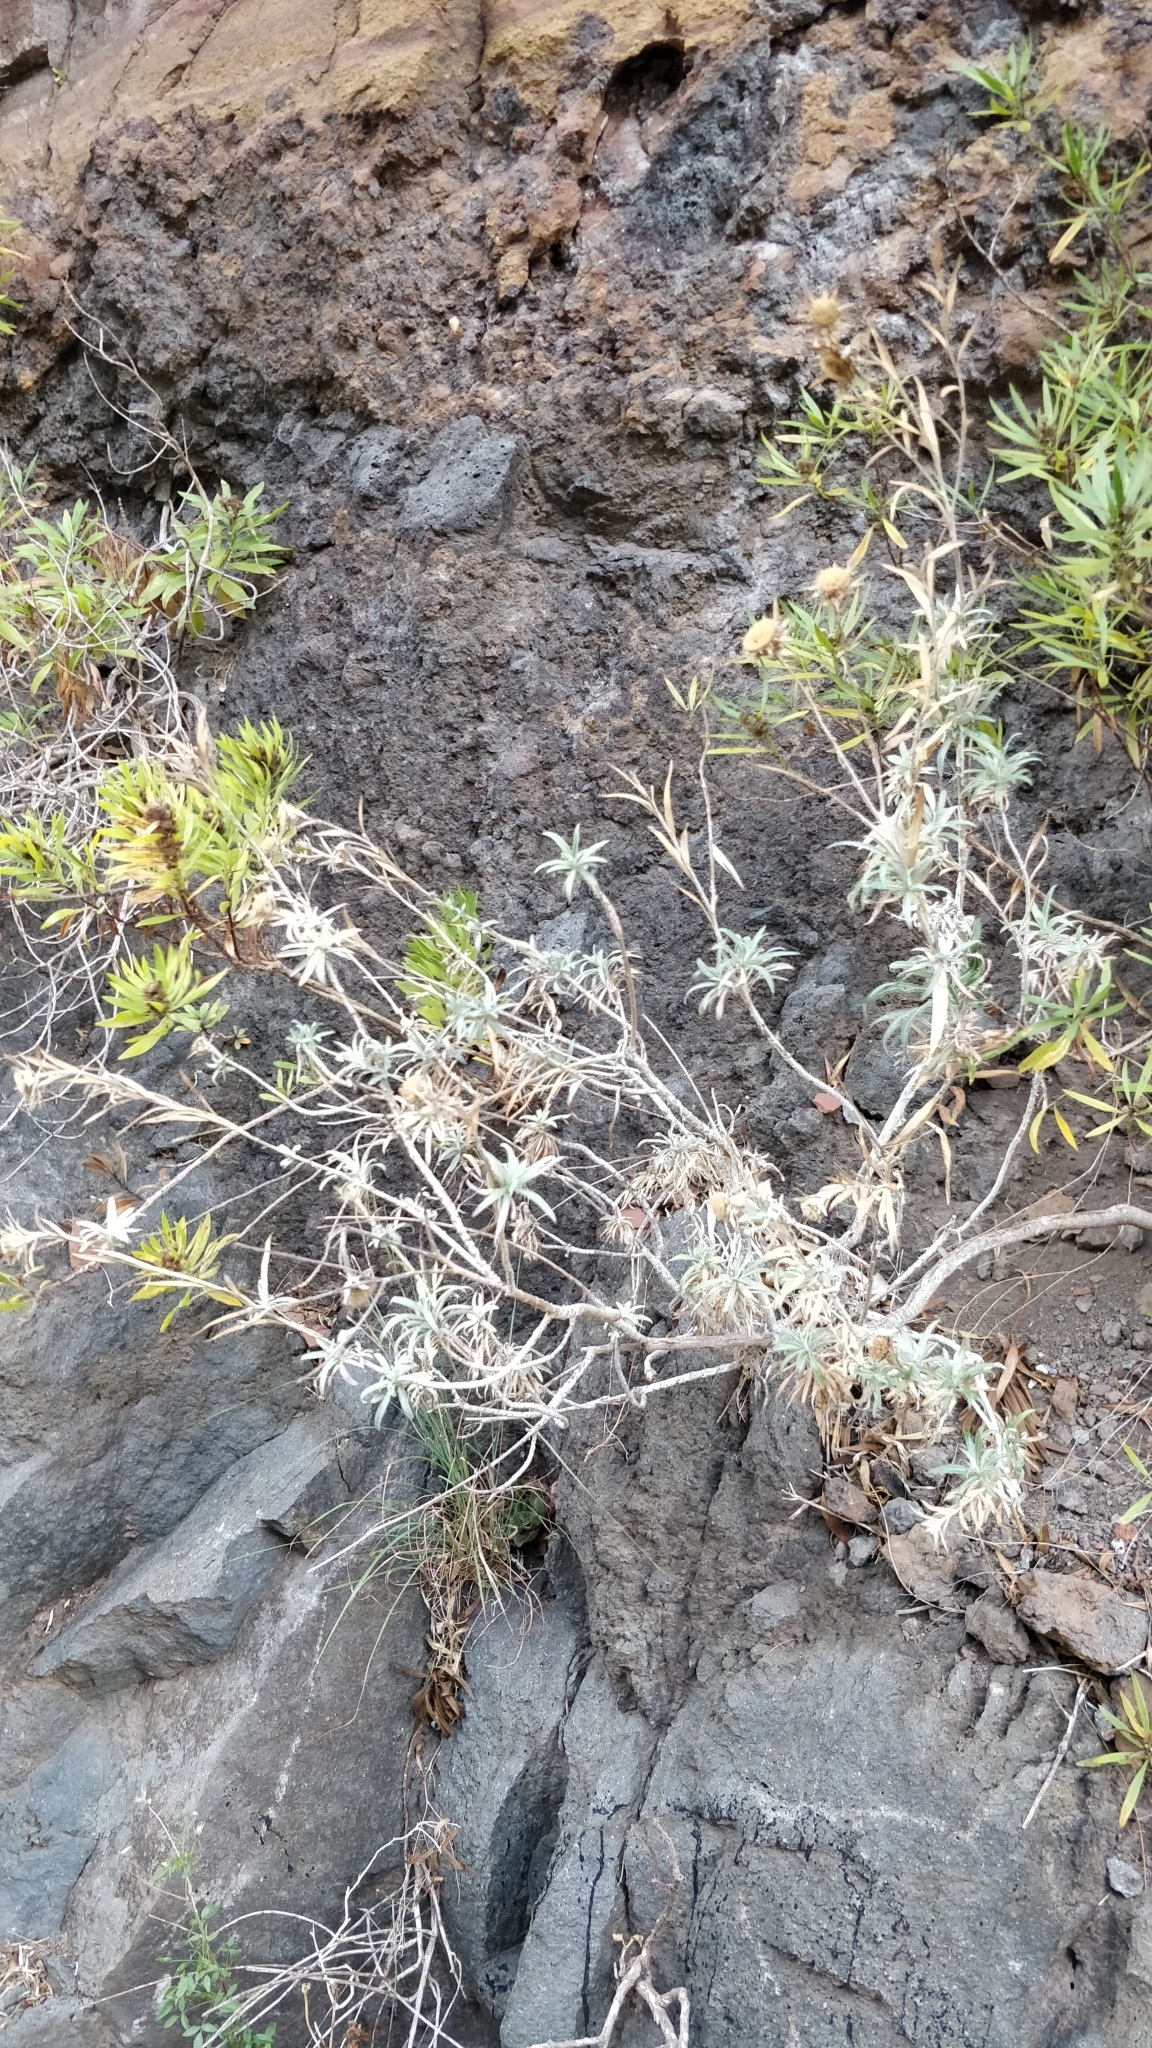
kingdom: Plantae
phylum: Tracheophyta
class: Magnoliopsida
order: Asterales
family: Asteraceae
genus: Carlina
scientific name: Carlina salicifolia
